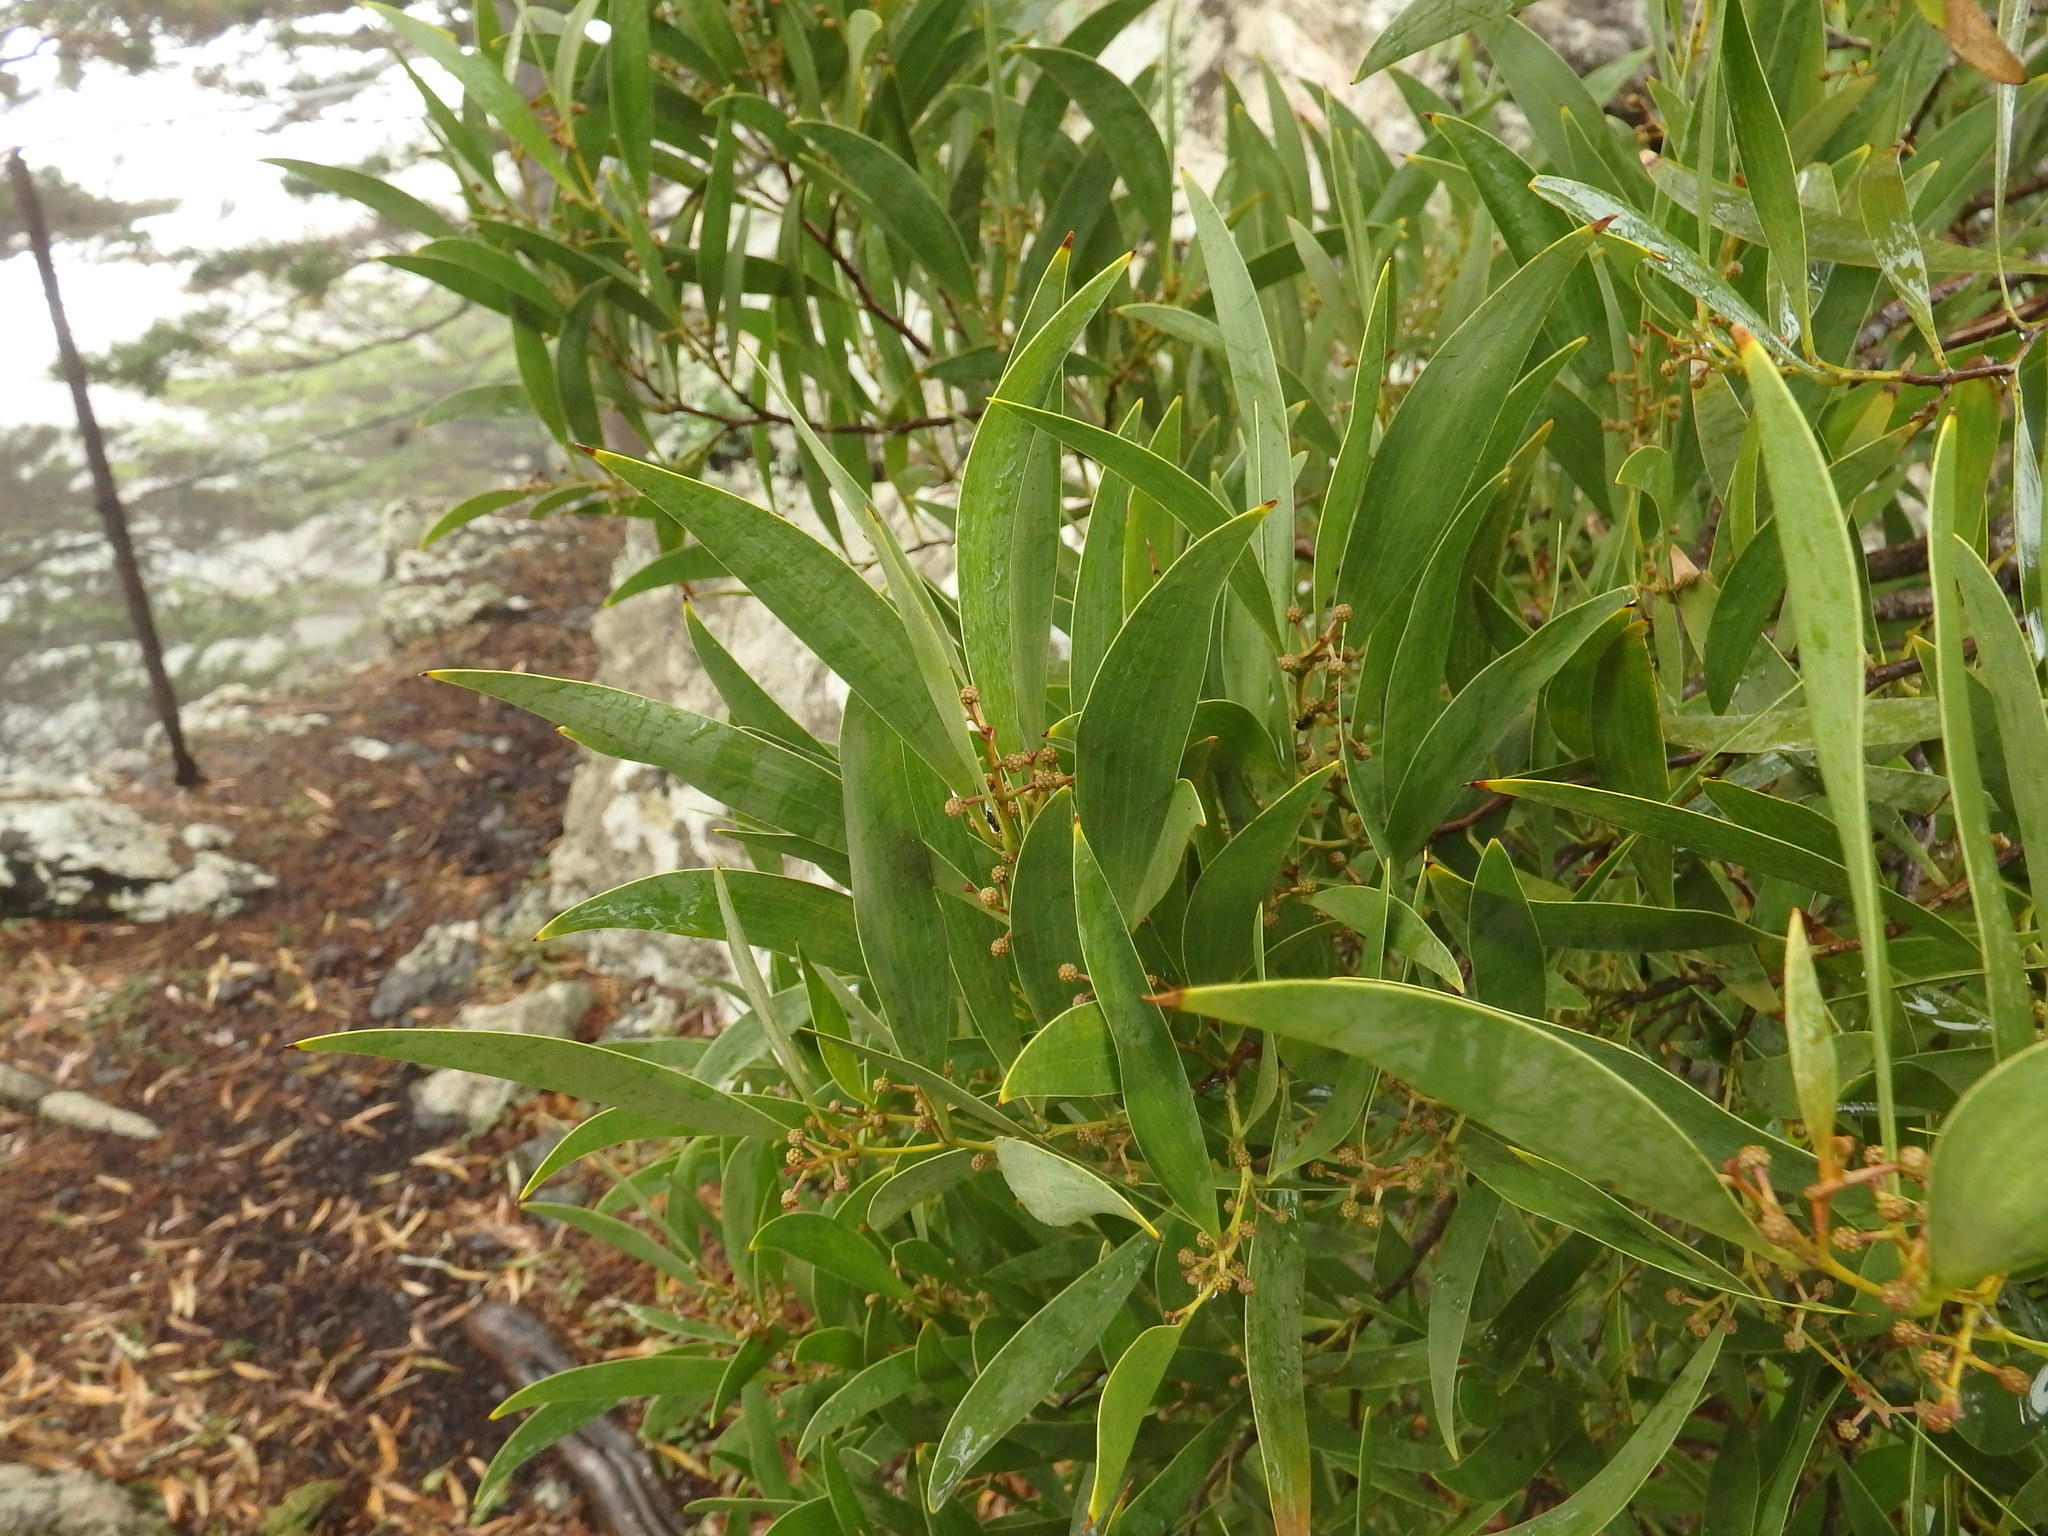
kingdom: Plantae
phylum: Tracheophyta
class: Magnoliopsida
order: Fabales
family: Fabaceae
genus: Acacia
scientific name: Acacia melanoxylon
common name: Blackwood
